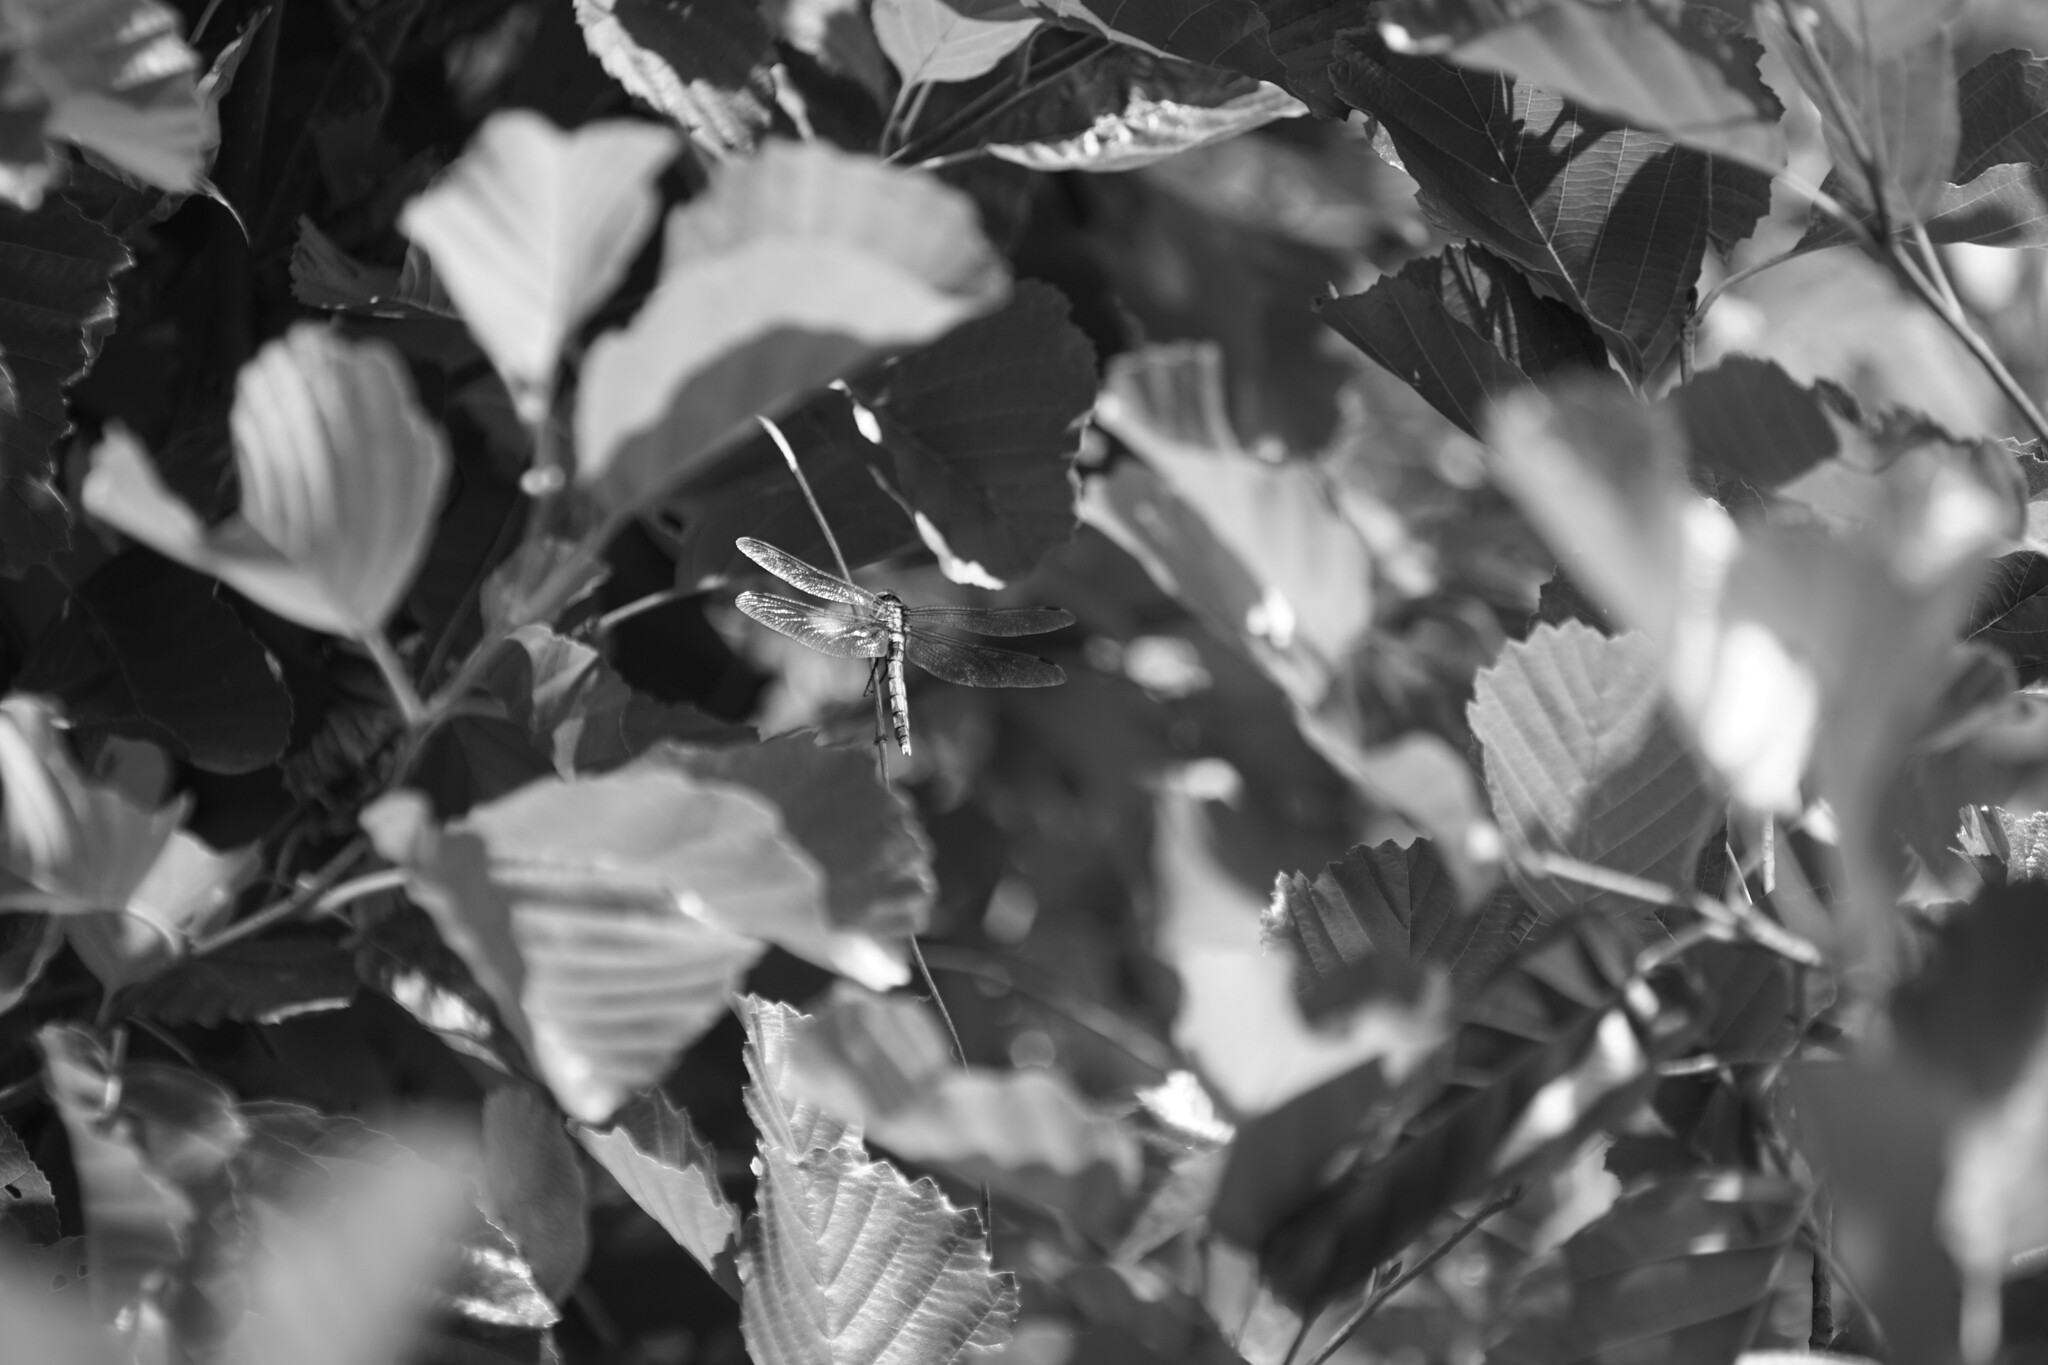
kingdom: Animalia
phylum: Arthropoda
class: Insecta
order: Odonata
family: Libellulidae
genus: Orthetrum
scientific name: Orthetrum albistylum
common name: White-tailed skimmer
